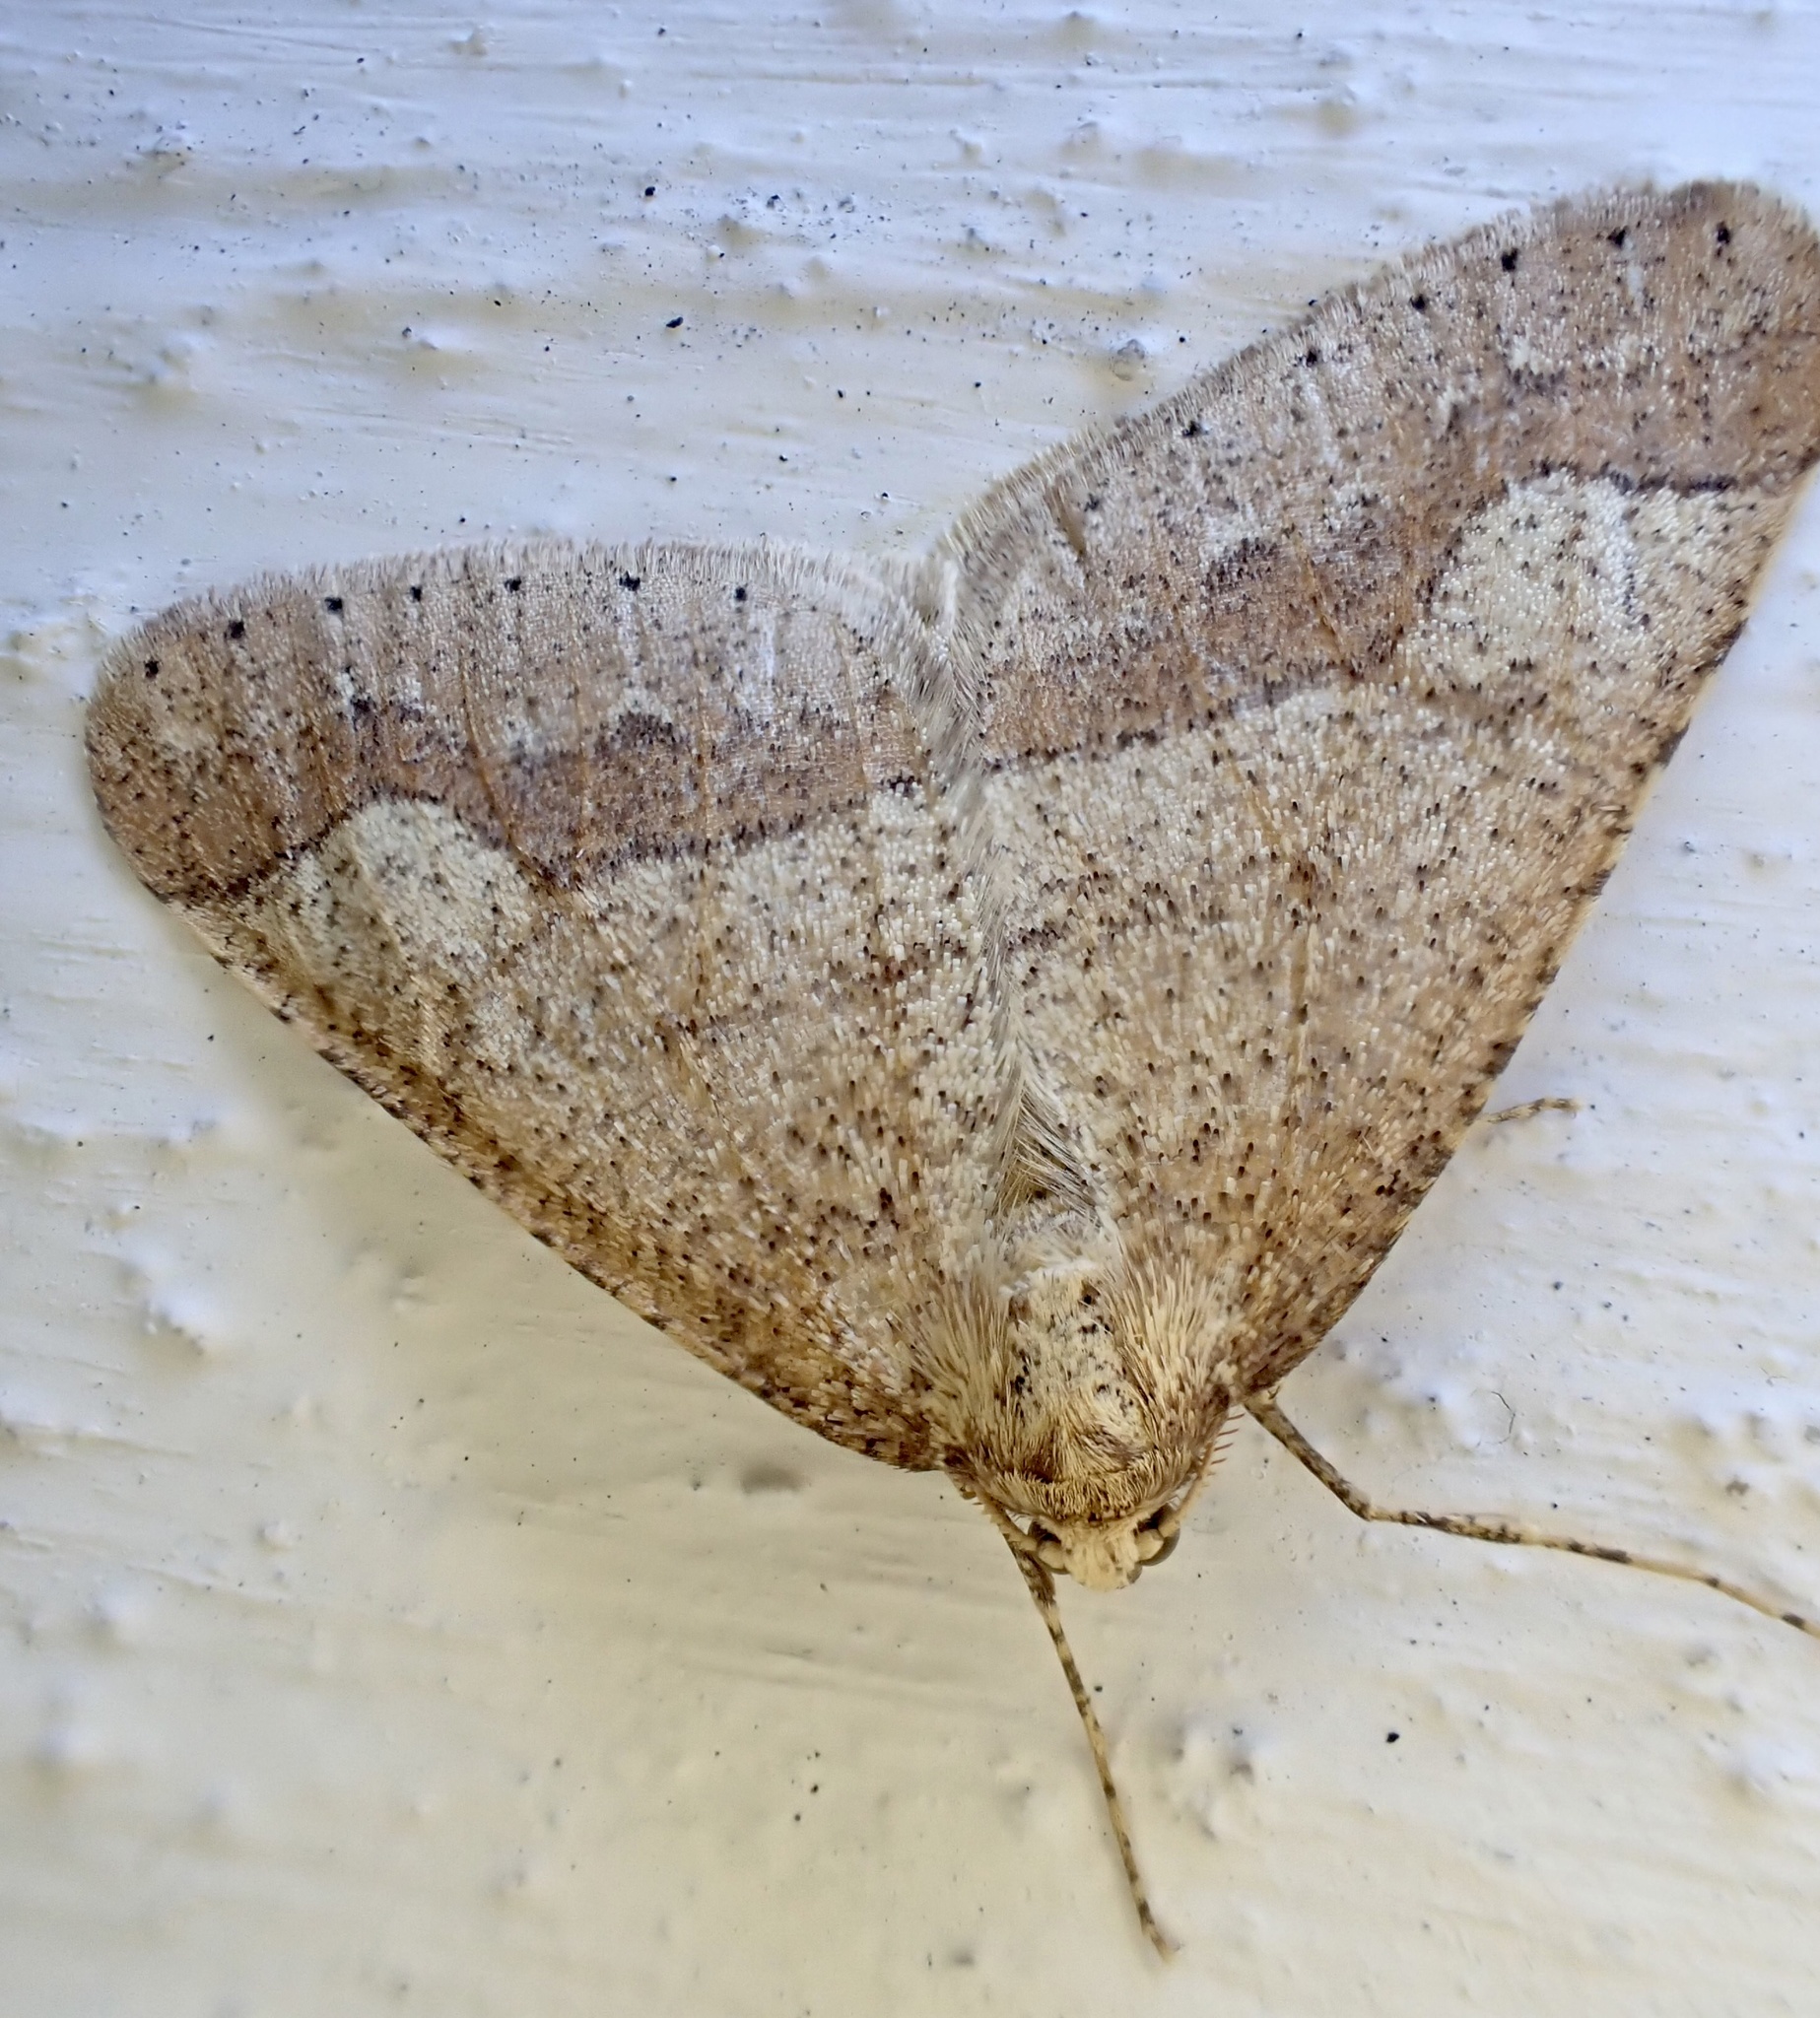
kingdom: Animalia
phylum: Arthropoda
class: Insecta
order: Lepidoptera
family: Geometridae
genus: Agriopis
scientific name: Agriopis marginaria
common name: Dotted border
